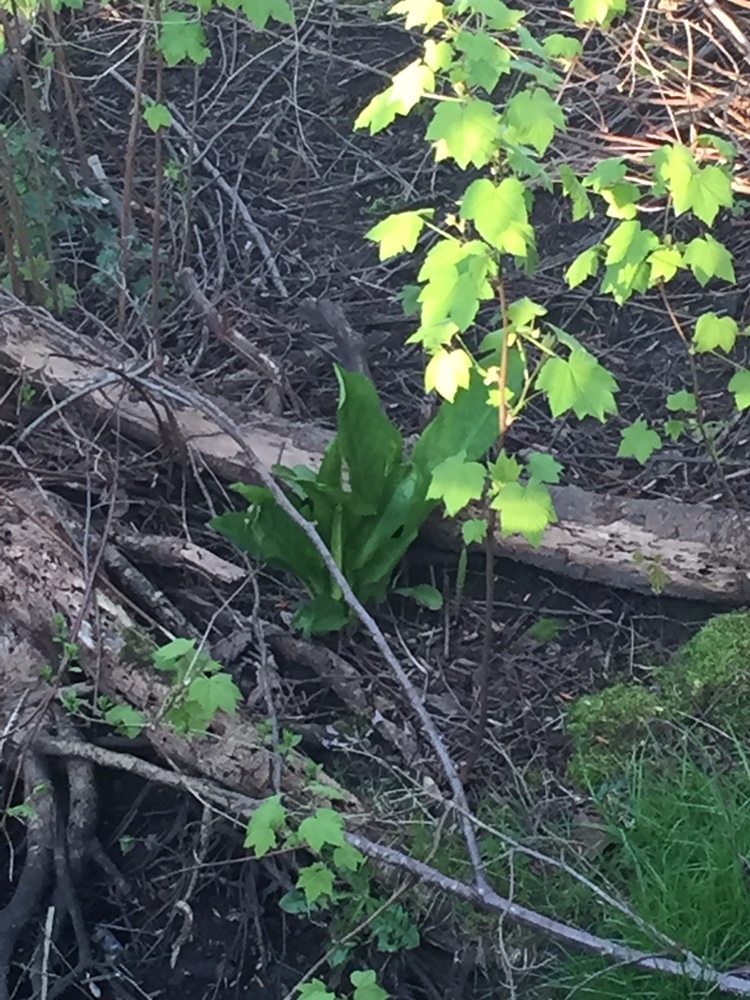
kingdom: Plantae
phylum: Tracheophyta
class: Liliopsida
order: Alismatales
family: Araceae
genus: Lysichiton
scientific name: Lysichiton americanus
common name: American skunk cabbage
